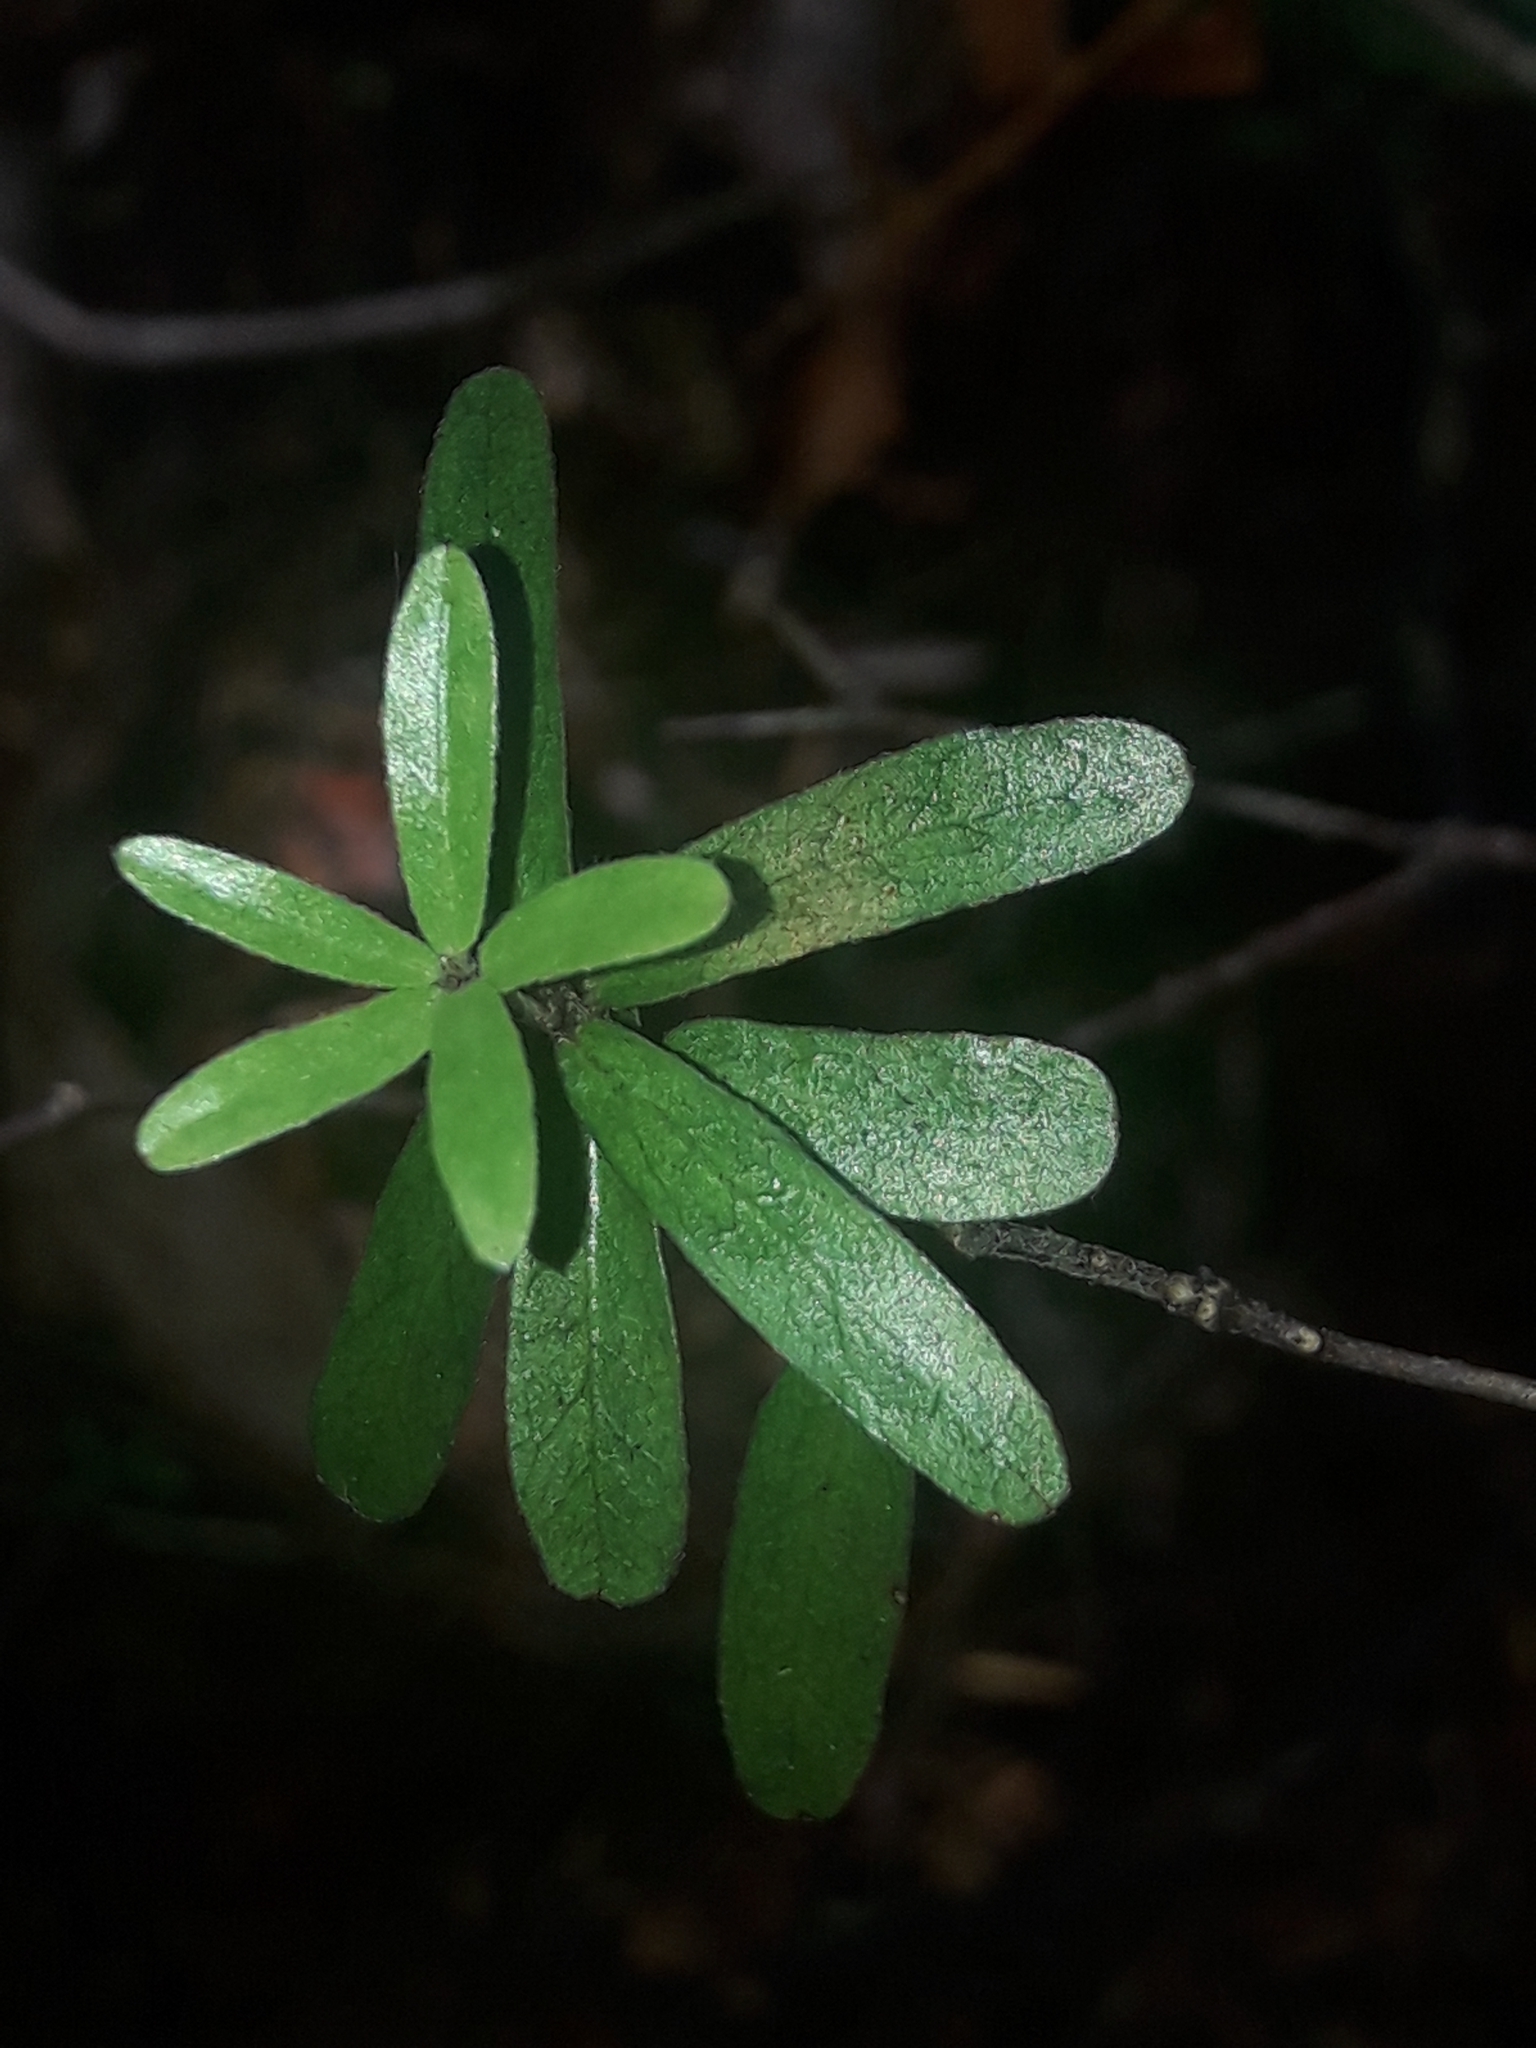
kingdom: Plantae
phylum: Tracheophyta
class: Magnoliopsida
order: Apiales
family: Pittosporaceae
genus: Pittosporum
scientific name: Pittosporum pimeleoides
